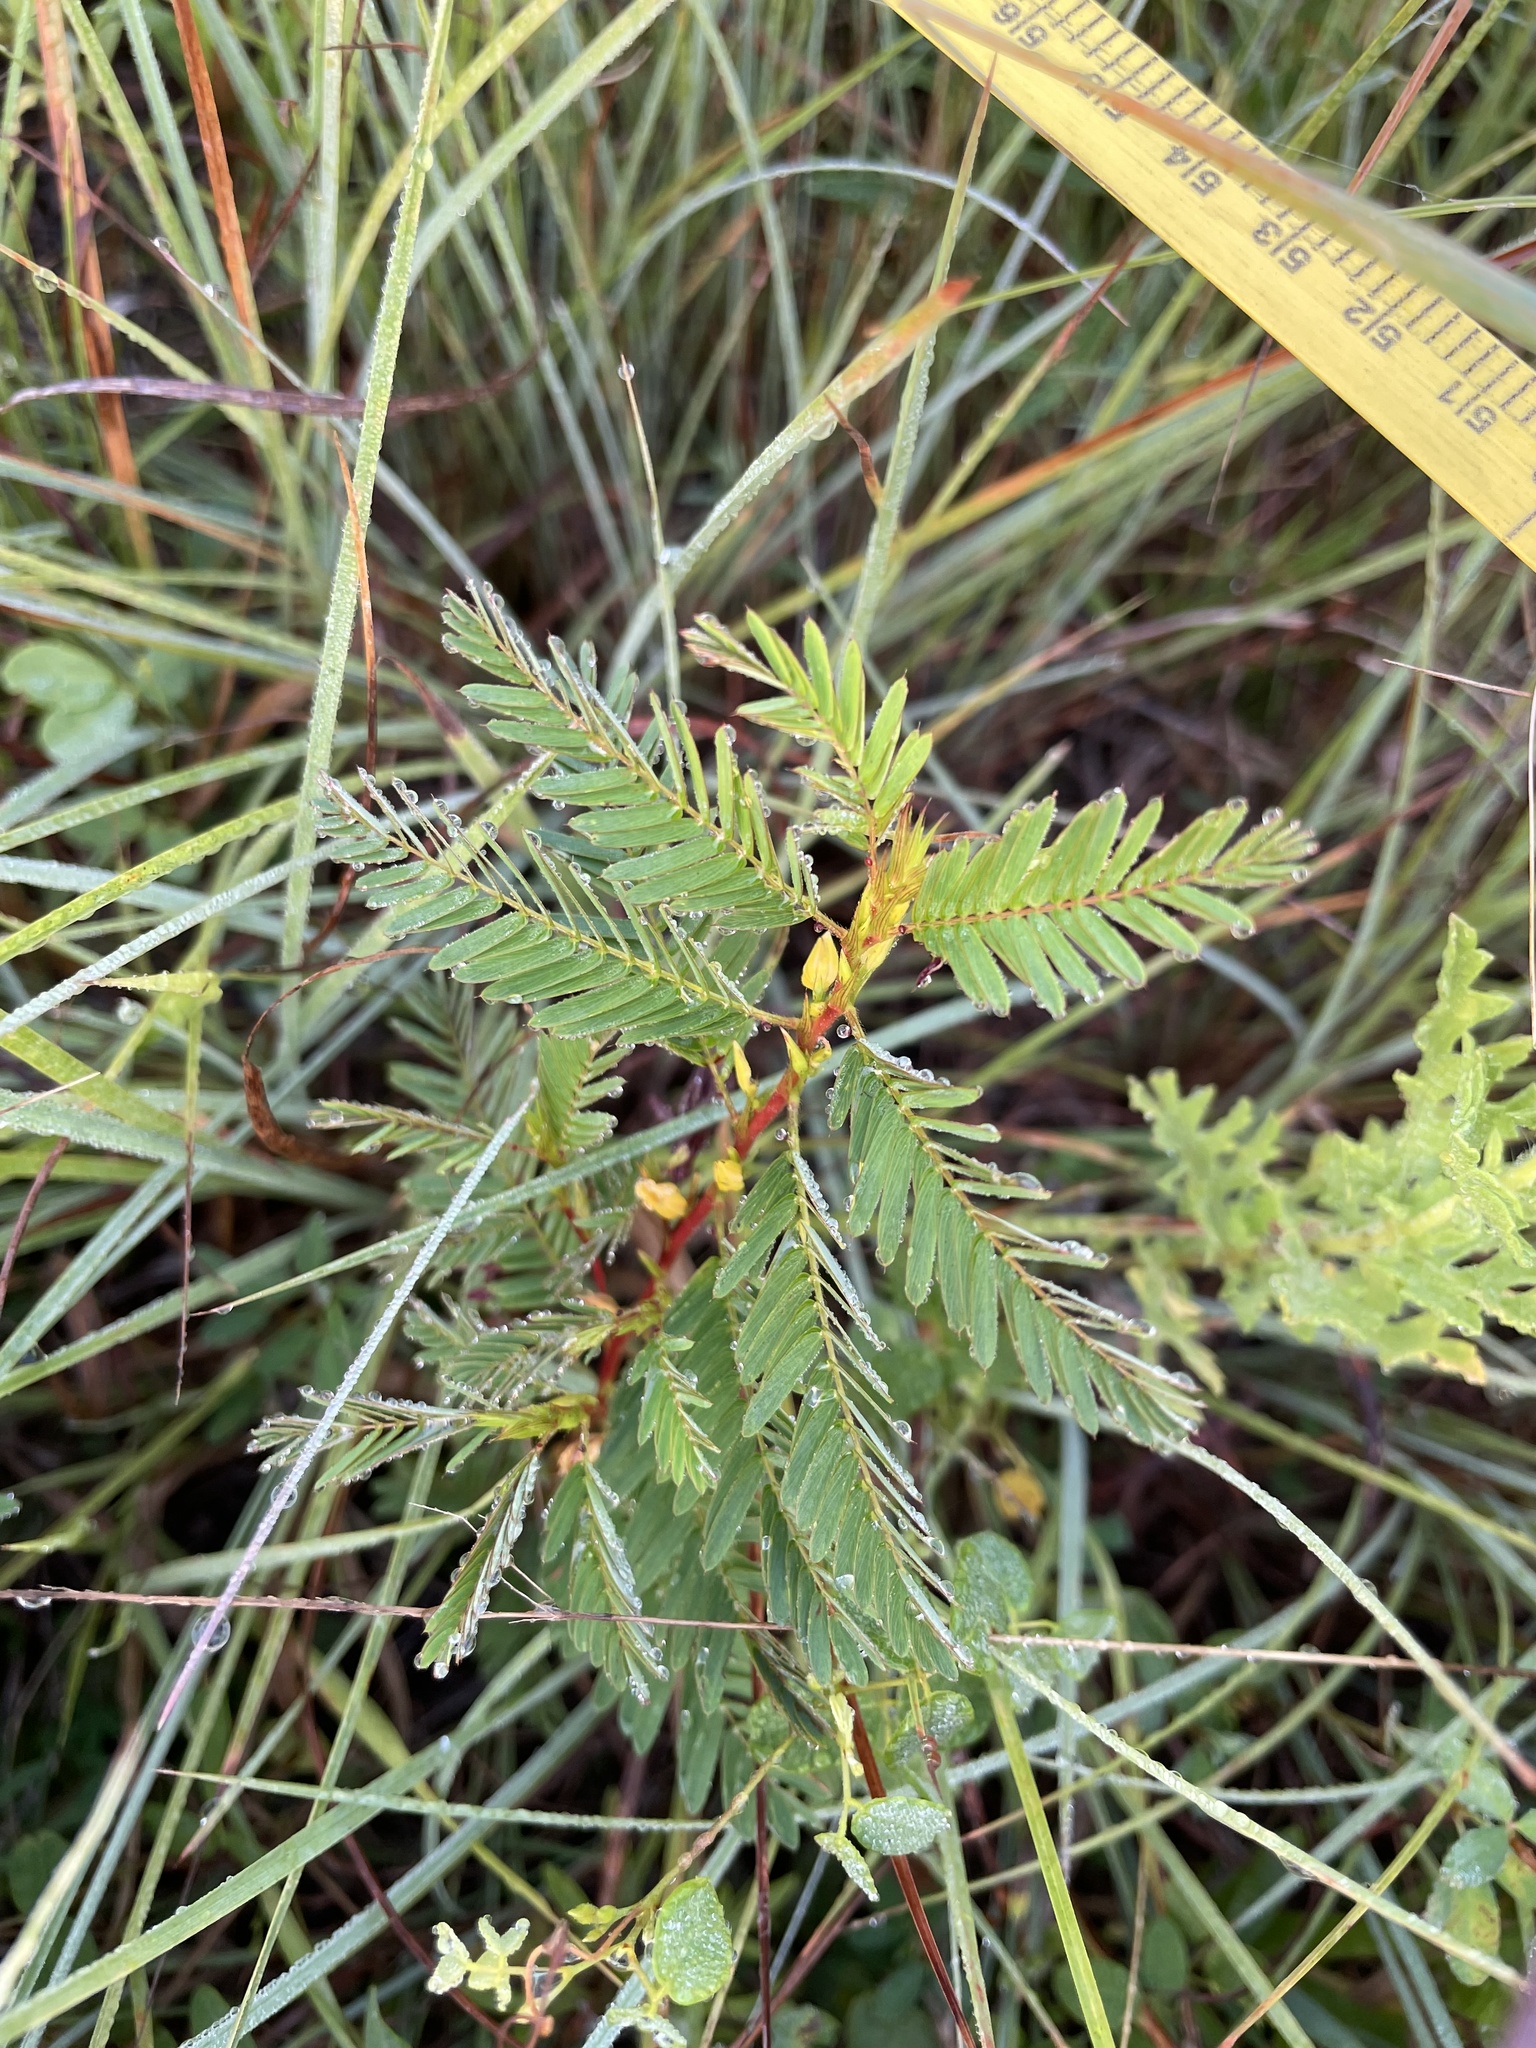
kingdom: Plantae
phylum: Tracheophyta
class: Magnoliopsida
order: Fabales
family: Fabaceae
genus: Chamaecrista
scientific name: Chamaecrista nictitans
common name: Sensitive cassia
